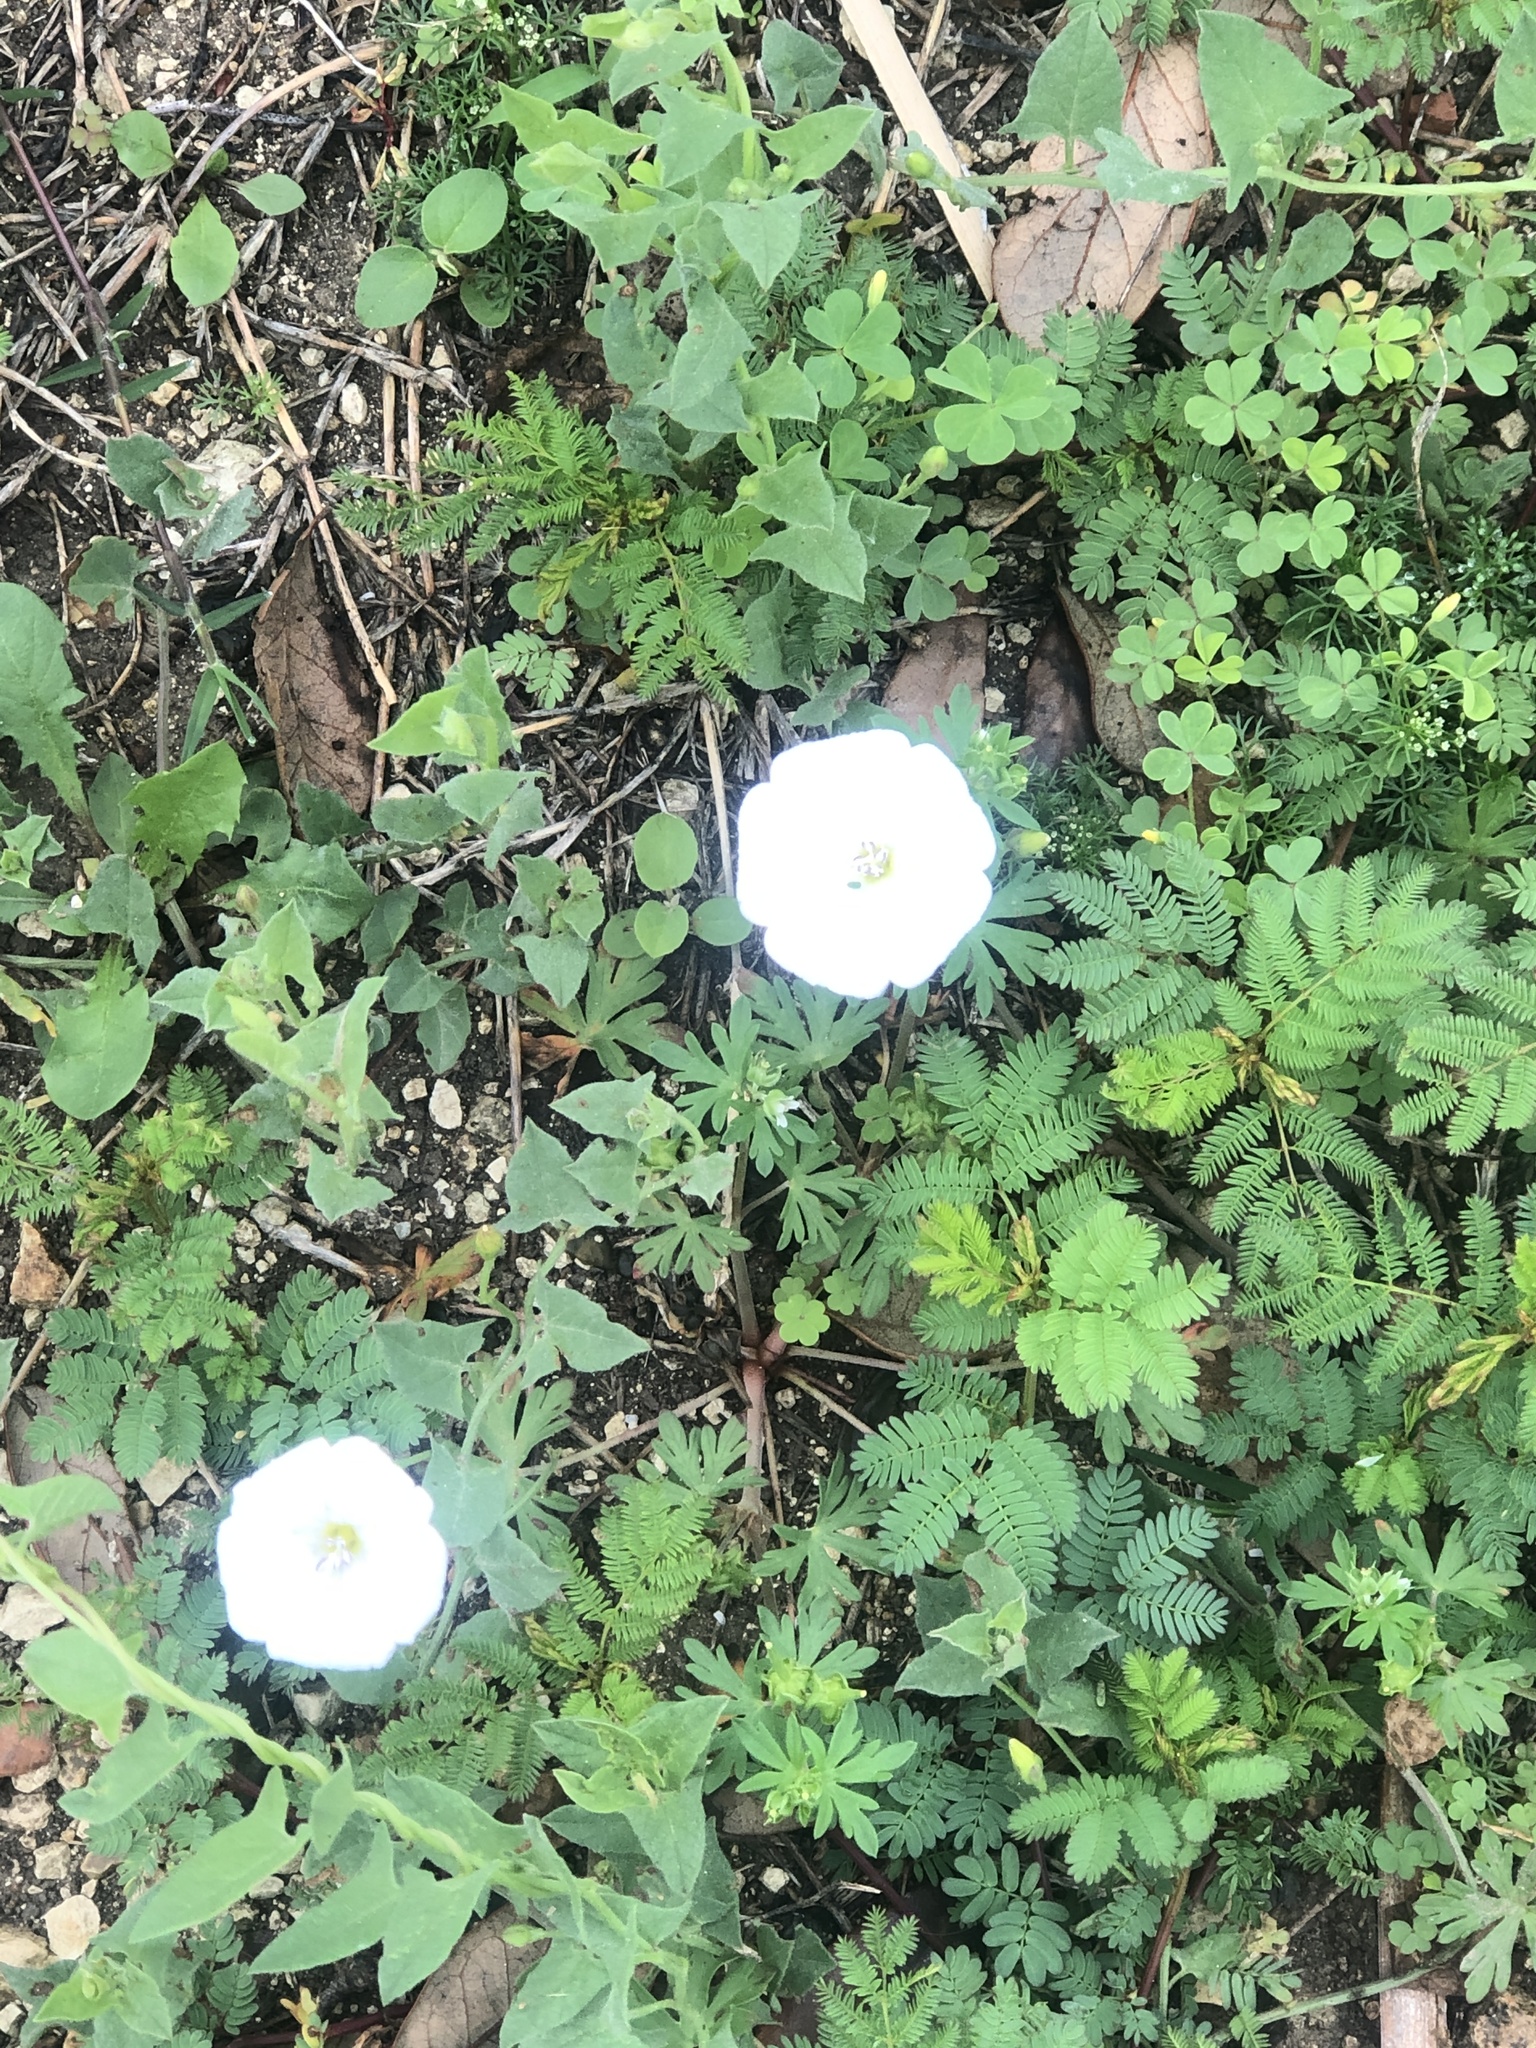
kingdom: Plantae
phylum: Tracheophyta
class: Magnoliopsida
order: Solanales
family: Convolvulaceae
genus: Convolvulus
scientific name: Convolvulus arvensis
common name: Field bindweed
